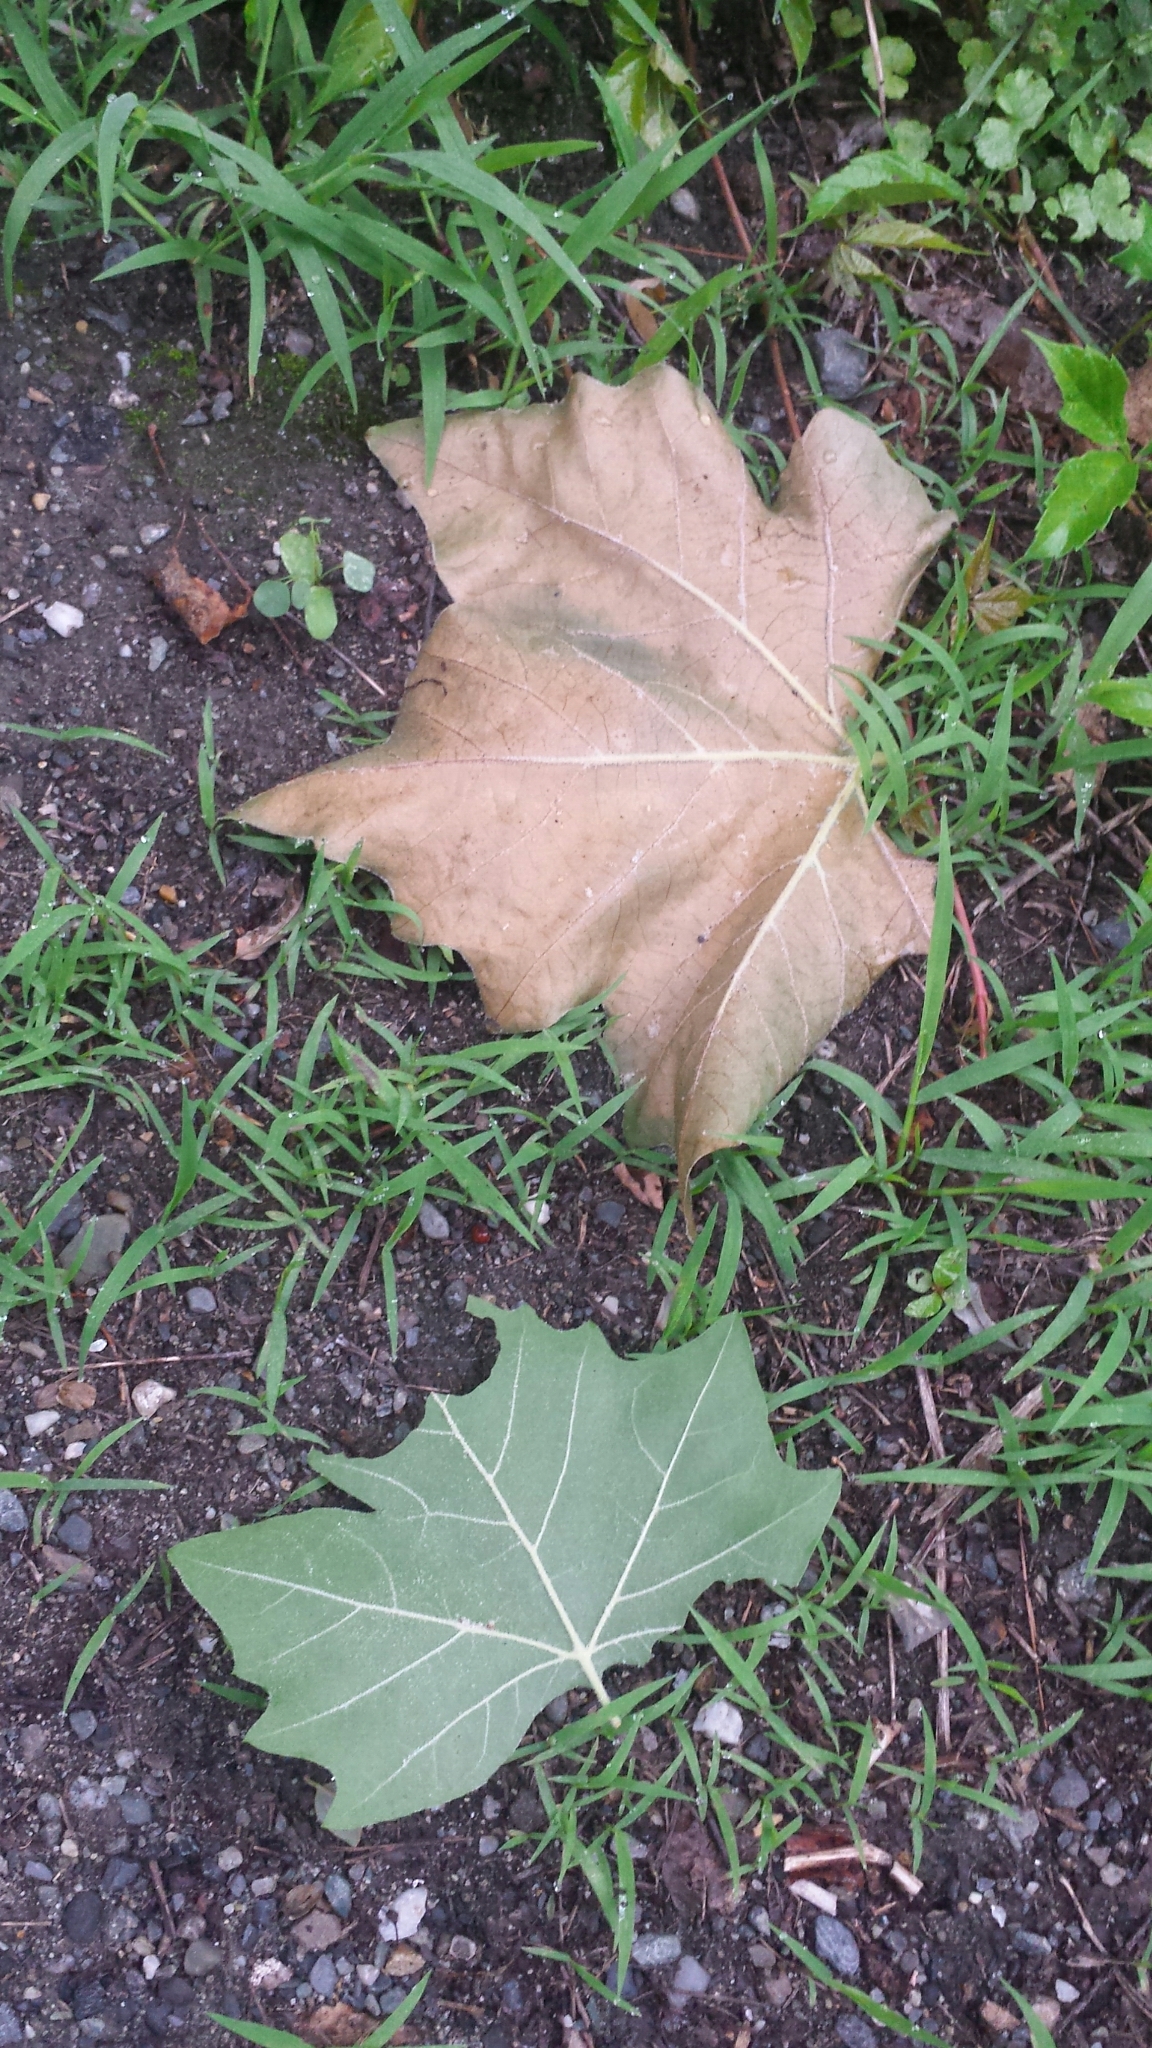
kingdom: Plantae
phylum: Tracheophyta
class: Magnoliopsida
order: Proteales
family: Platanaceae
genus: Platanus
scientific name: Platanus occidentalis
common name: American sycamore
